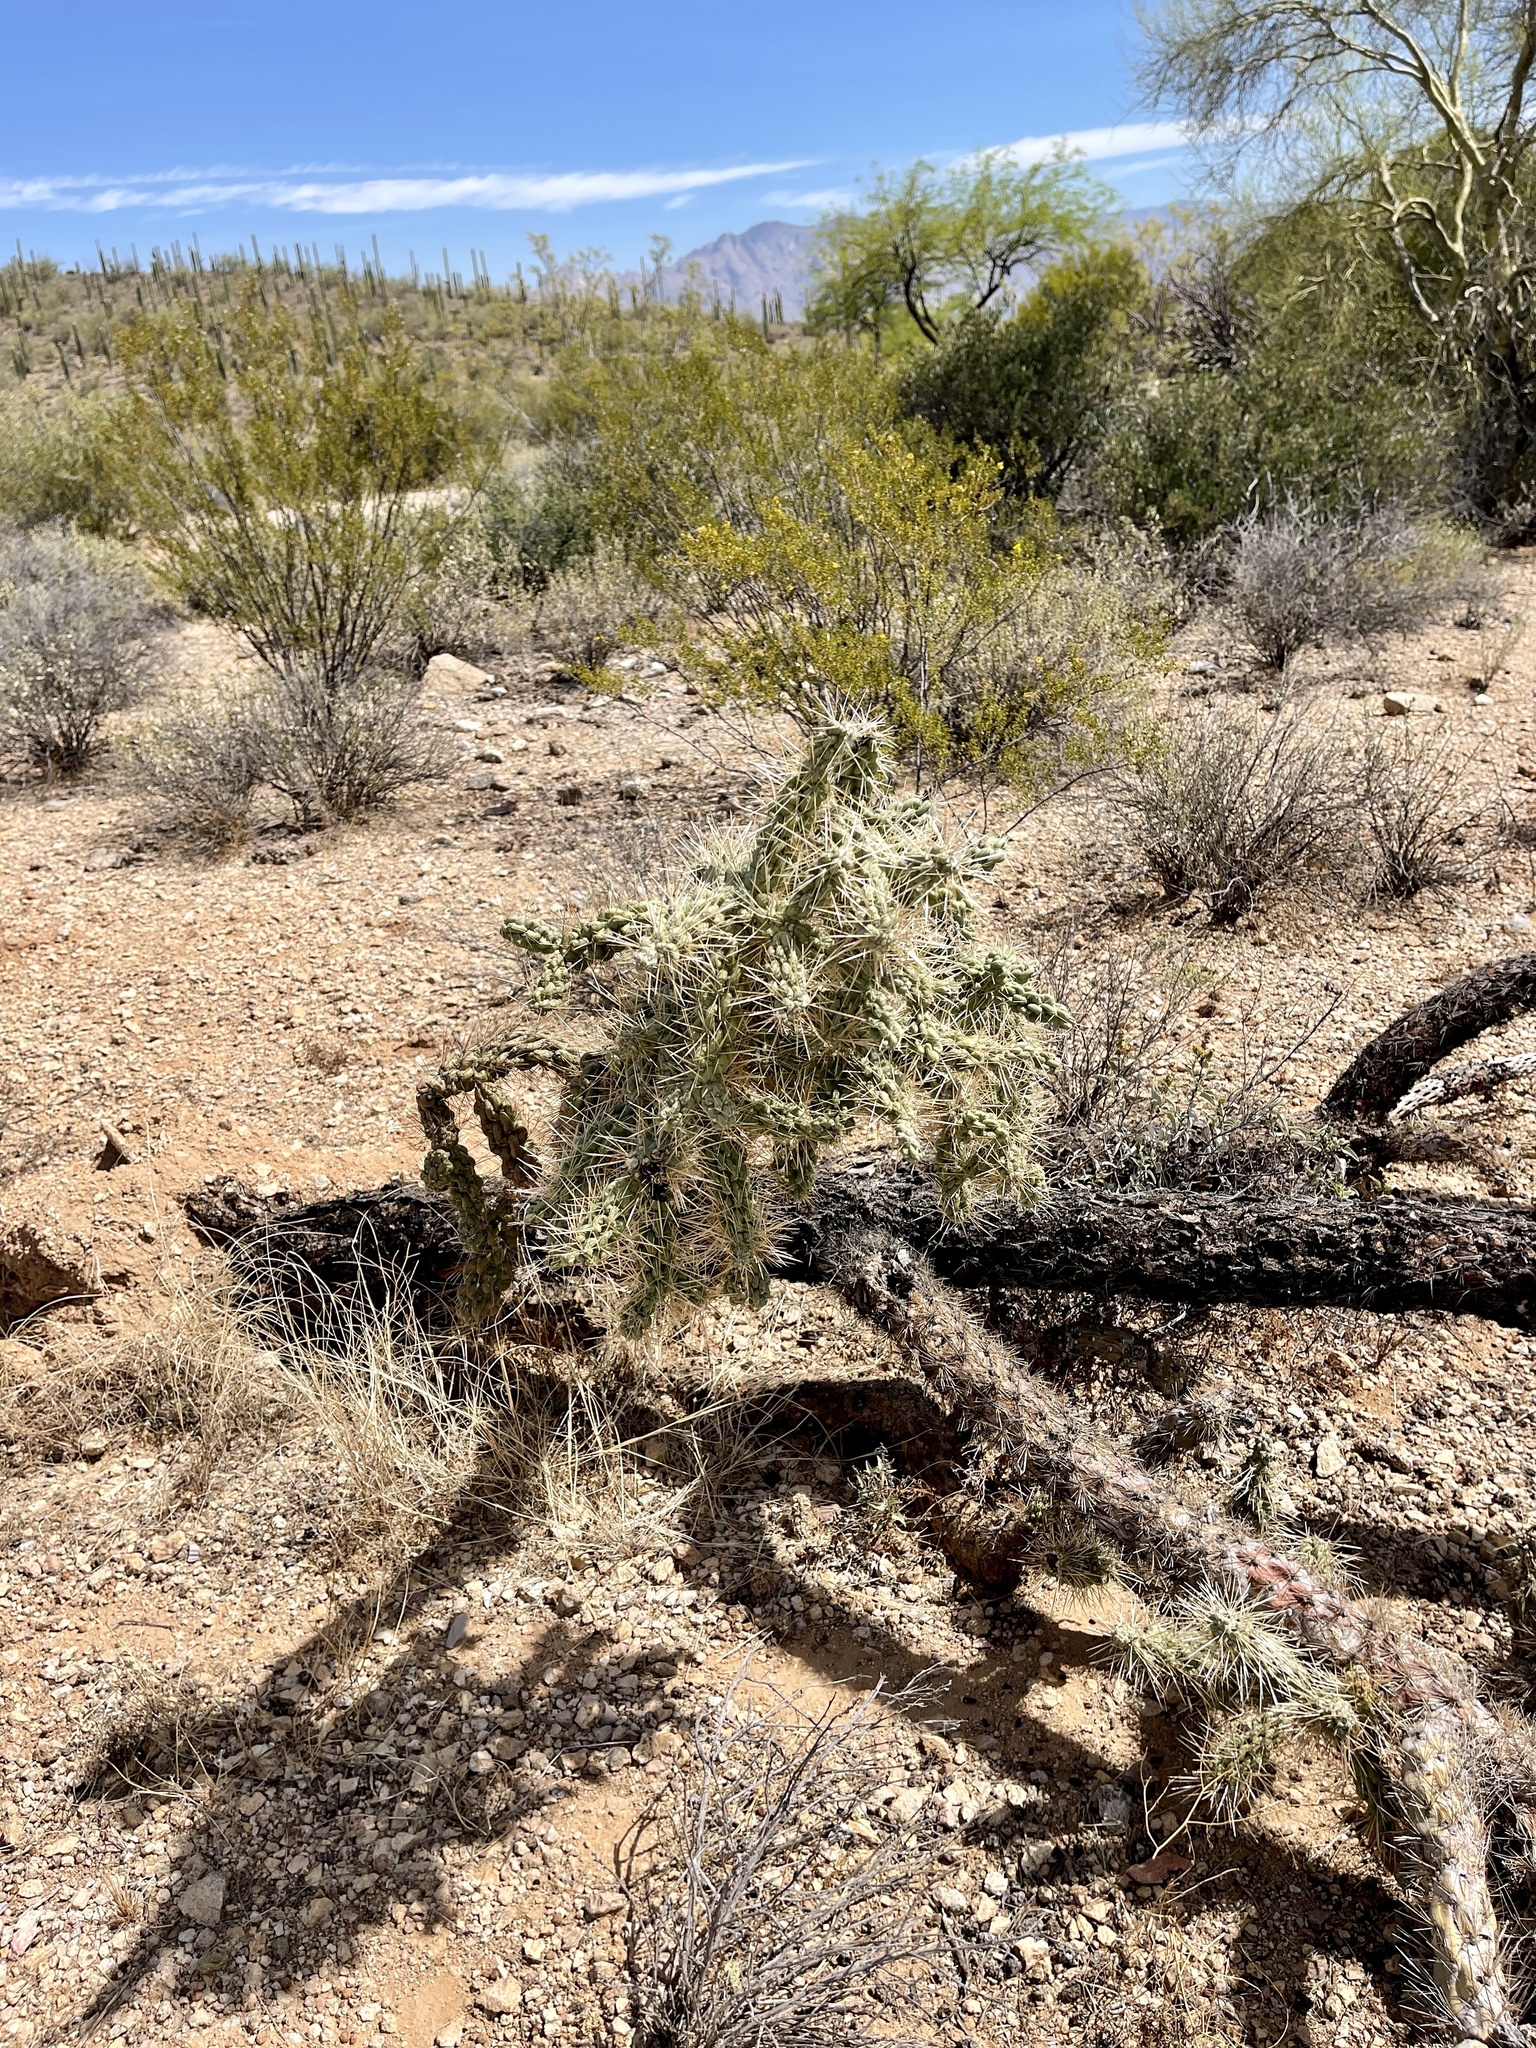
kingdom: Plantae
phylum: Tracheophyta
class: Magnoliopsida
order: Caryophyllales
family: Cactaceae
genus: Cylindropuntia
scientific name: Cylindropuntia fulgida
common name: Jumping cholla
